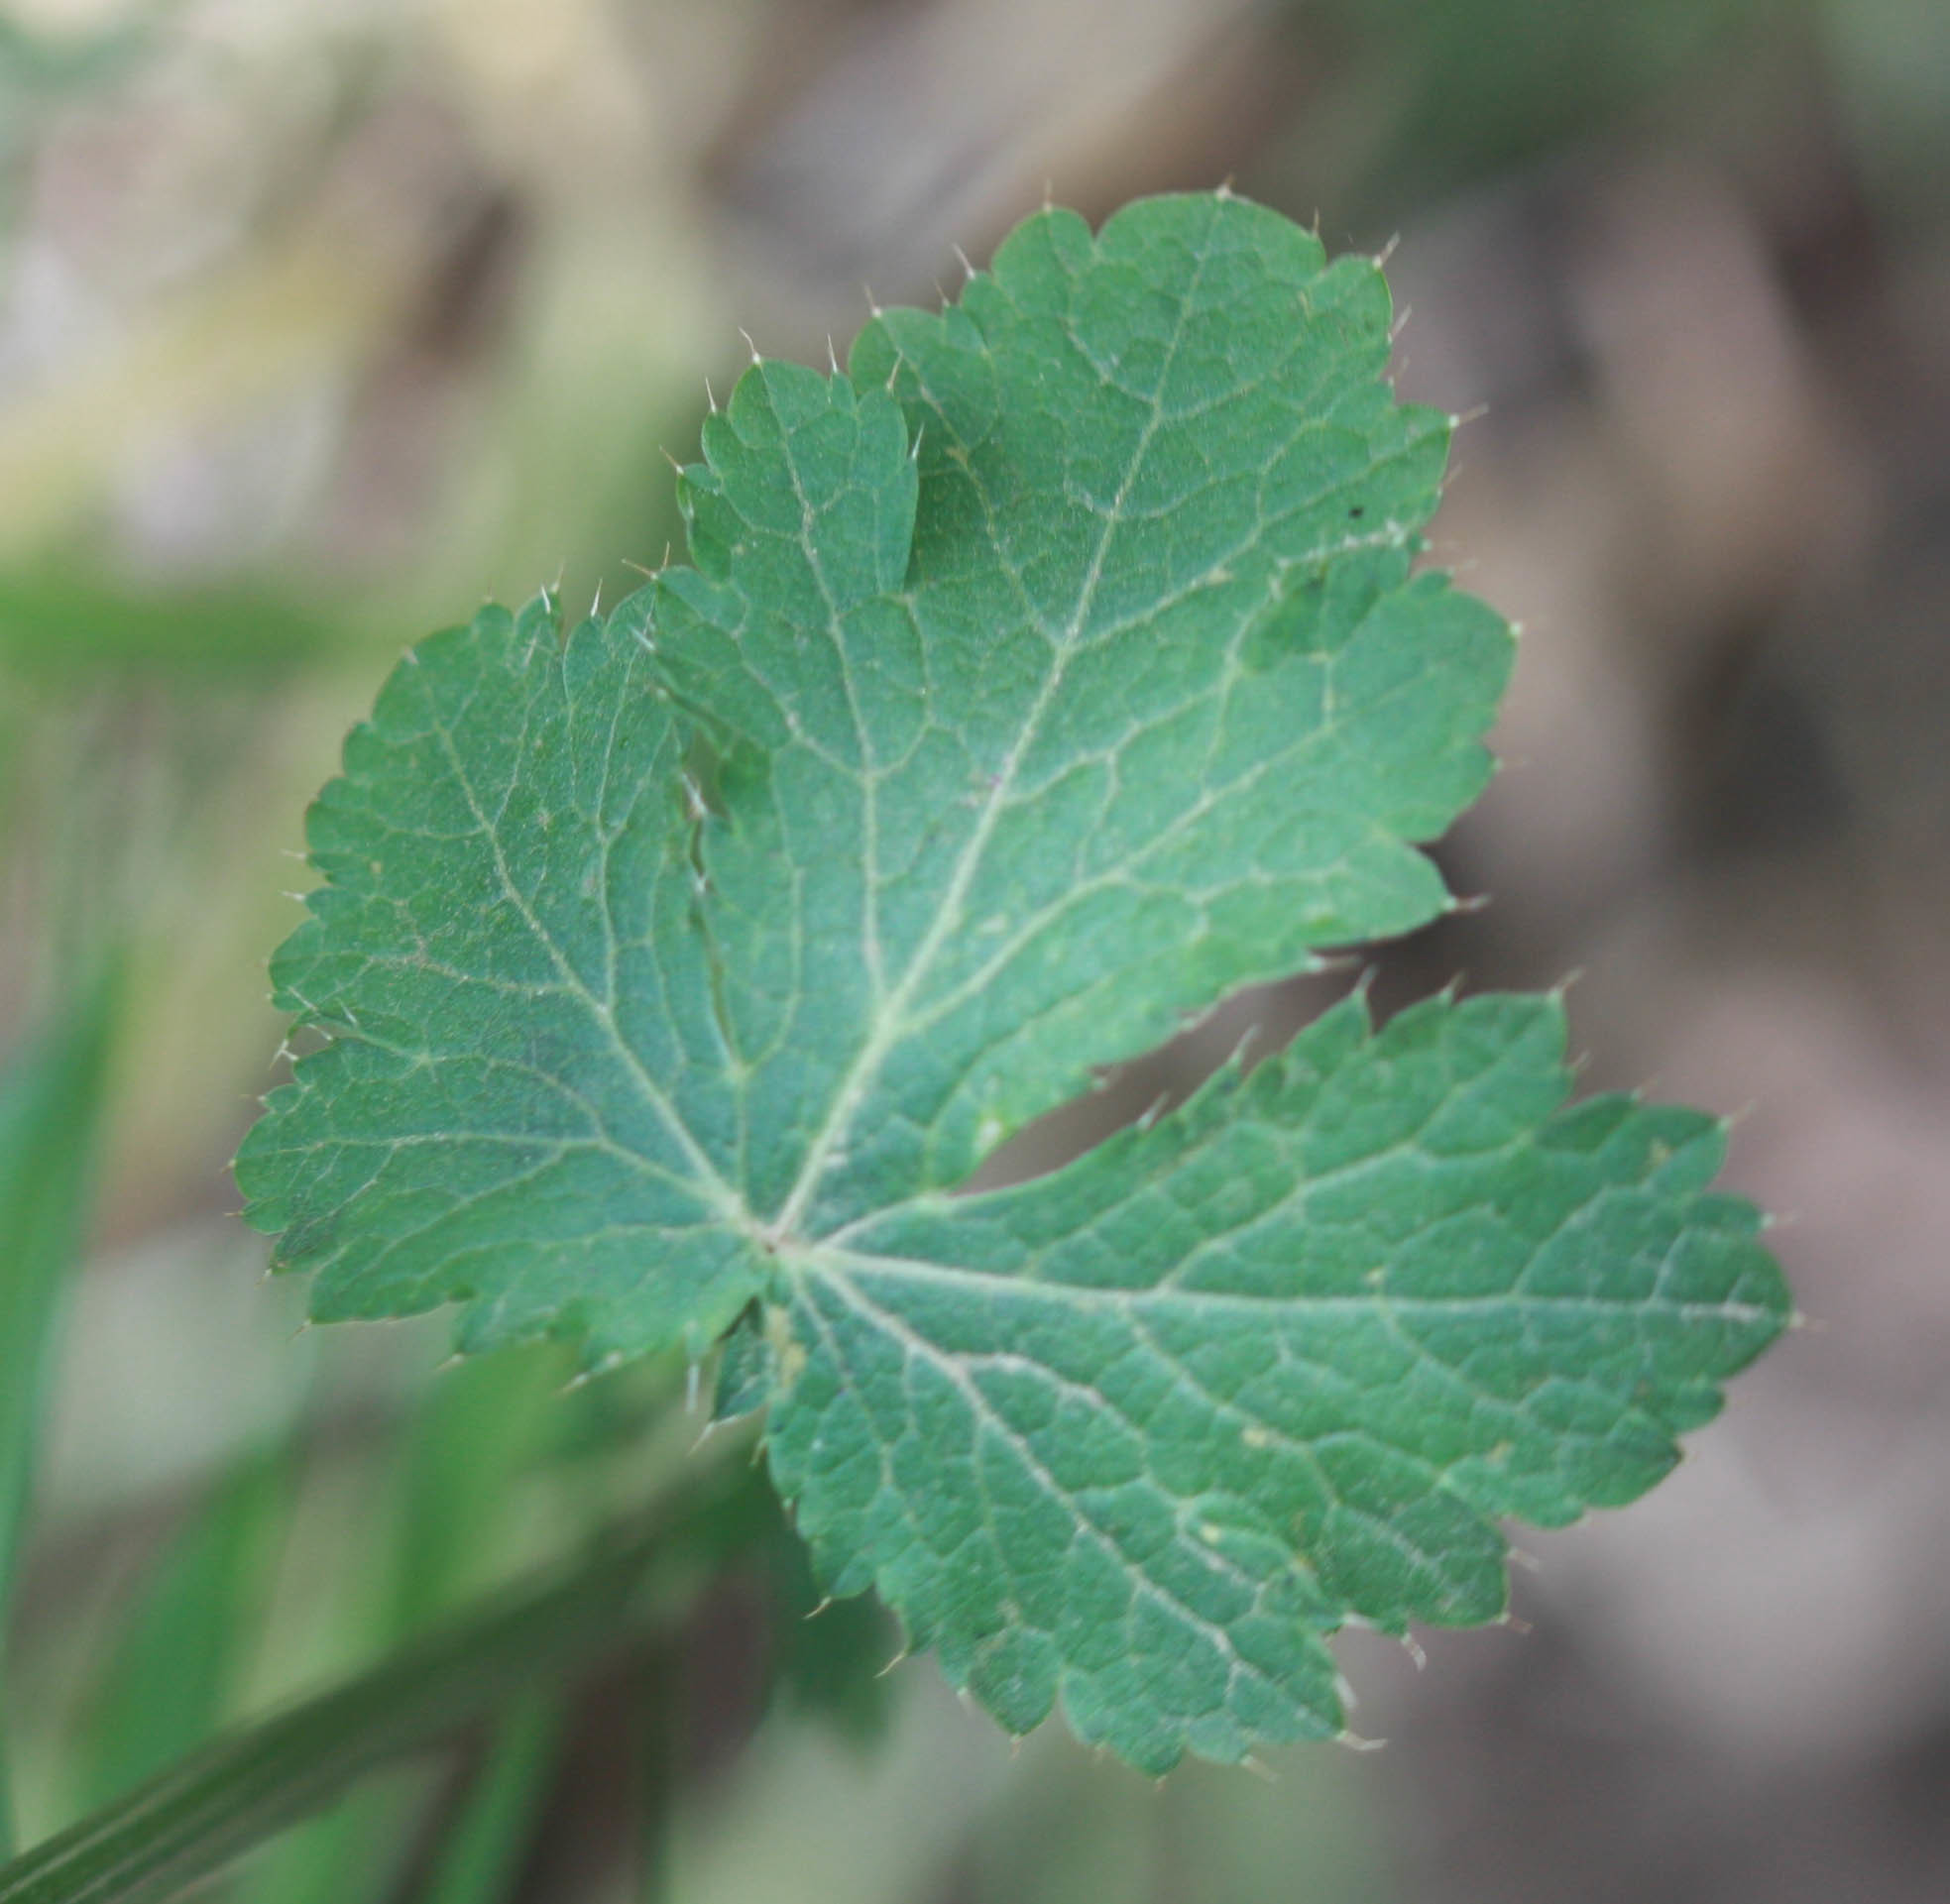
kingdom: Plantae
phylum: Tracheophyta
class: Magnoliopsida
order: Apiales
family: Apiaceae
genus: Sanicula
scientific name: Sanicula crassicaulis
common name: Western snakeroot
